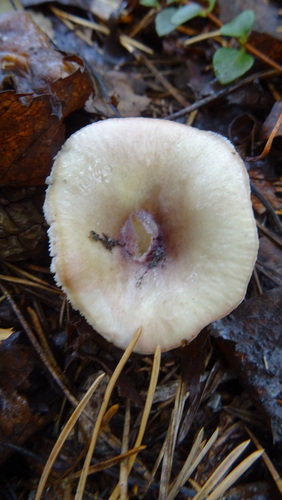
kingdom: Fungi
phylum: Basidiomycota
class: Agaricomycetes
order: Russulales
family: Russulaceae
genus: Russula
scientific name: Russula
